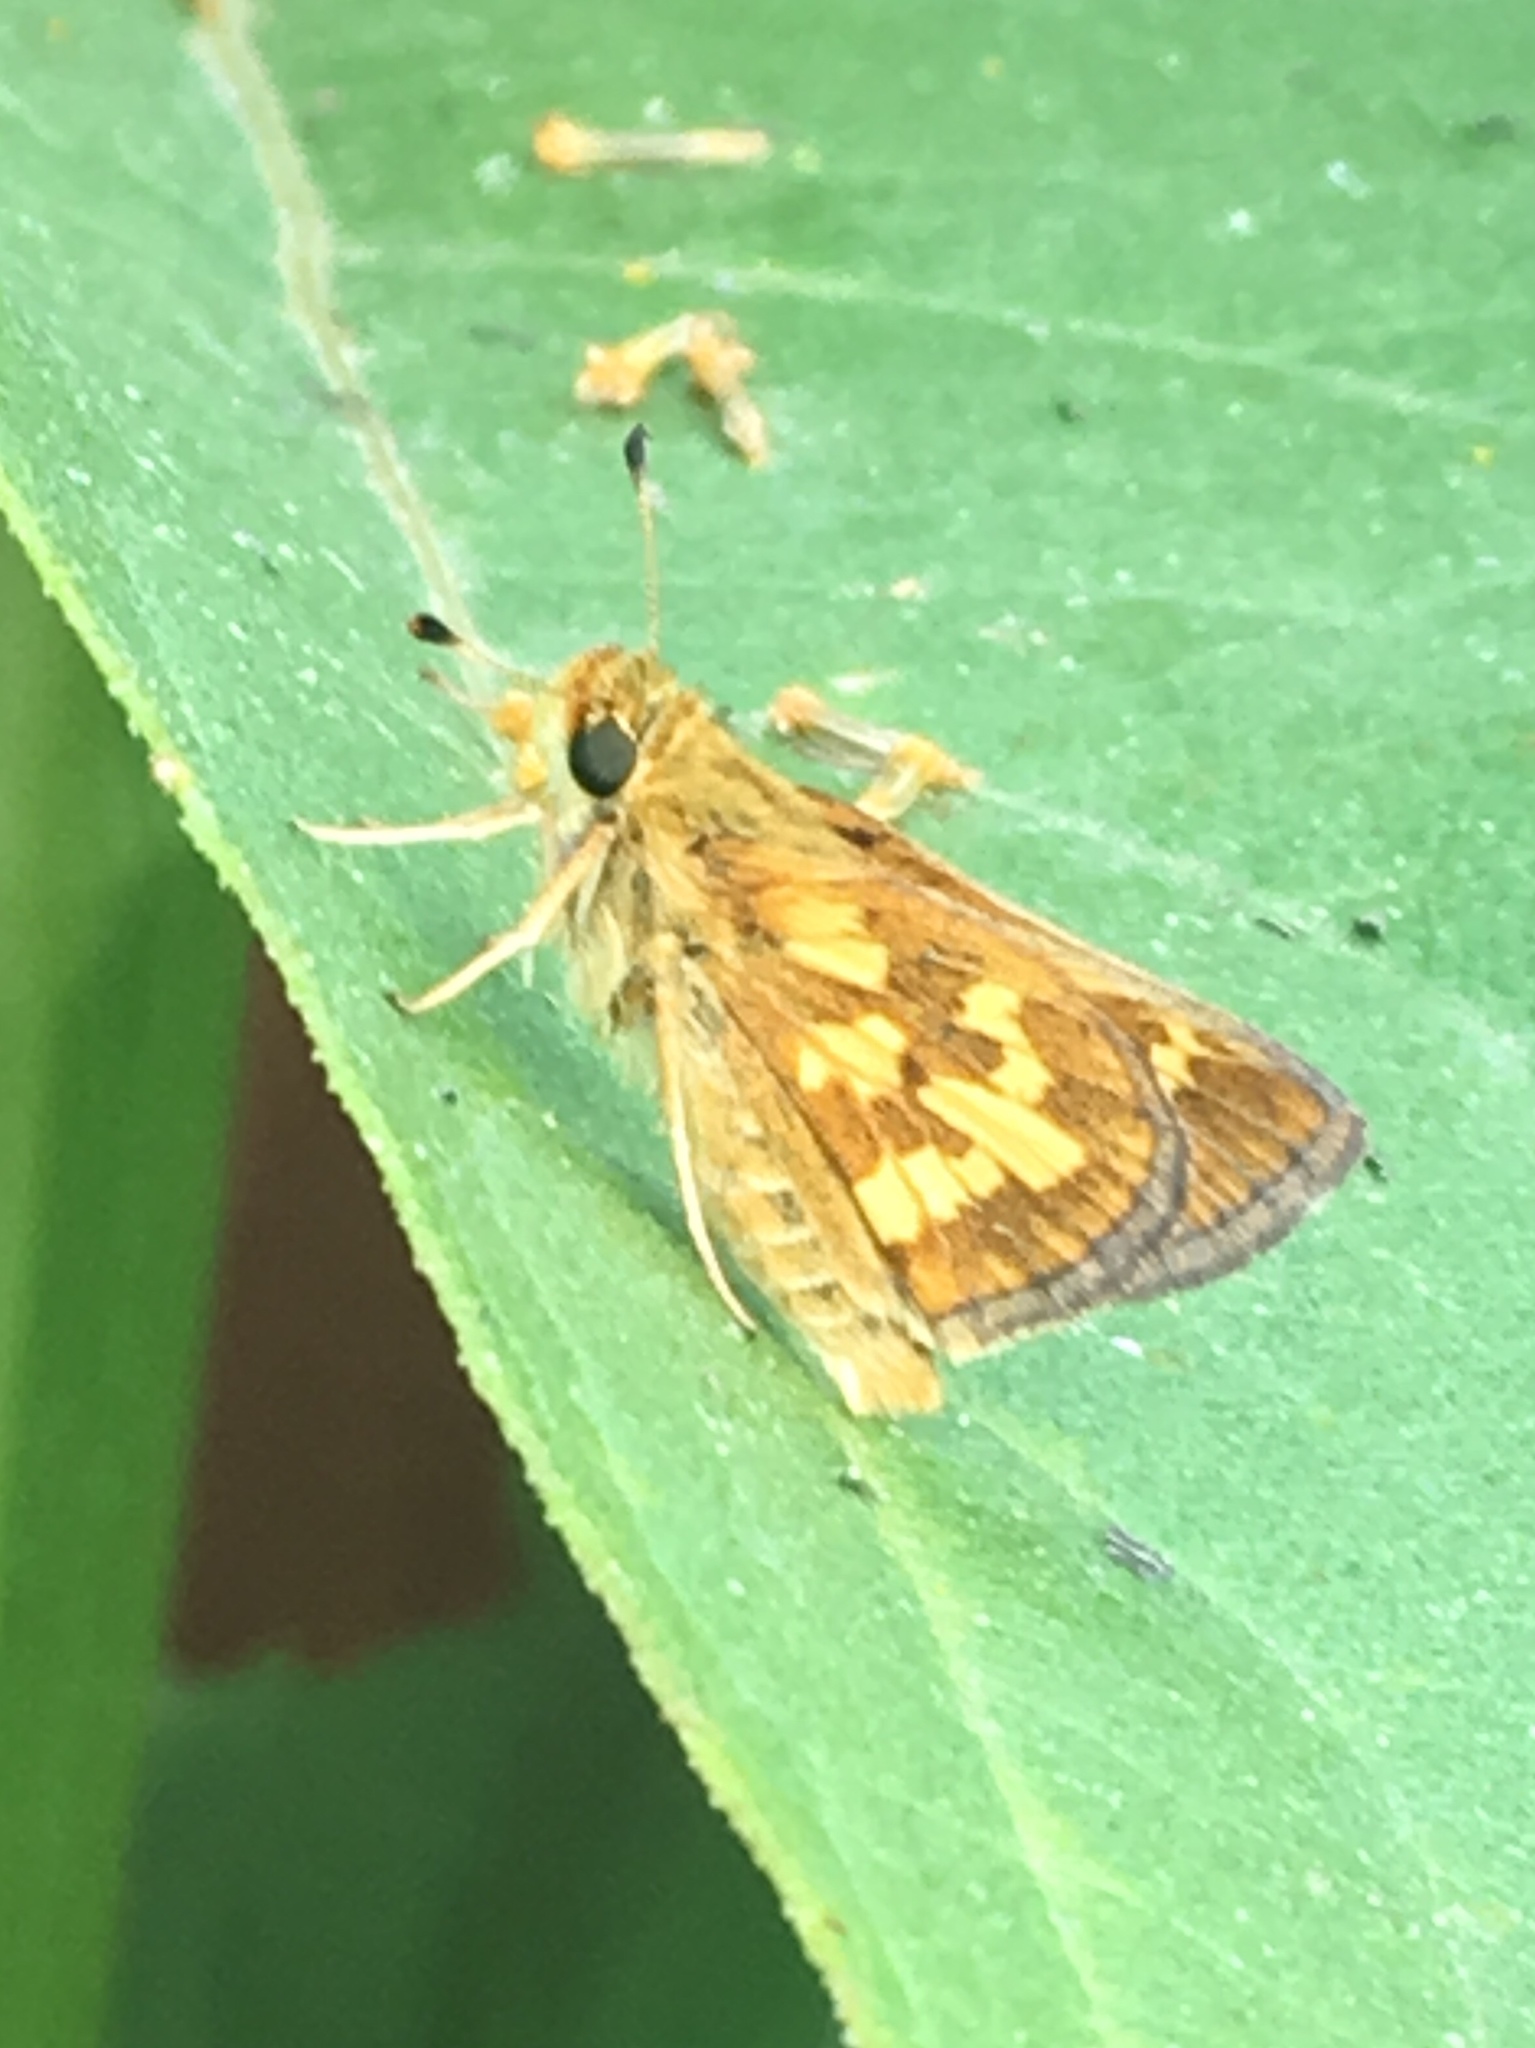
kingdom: Animalia
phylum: Arthropoda
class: Insecta
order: Lepidoptera
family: Hesperiidae
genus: Polites
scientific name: Polites coras
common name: Peck's skipper
